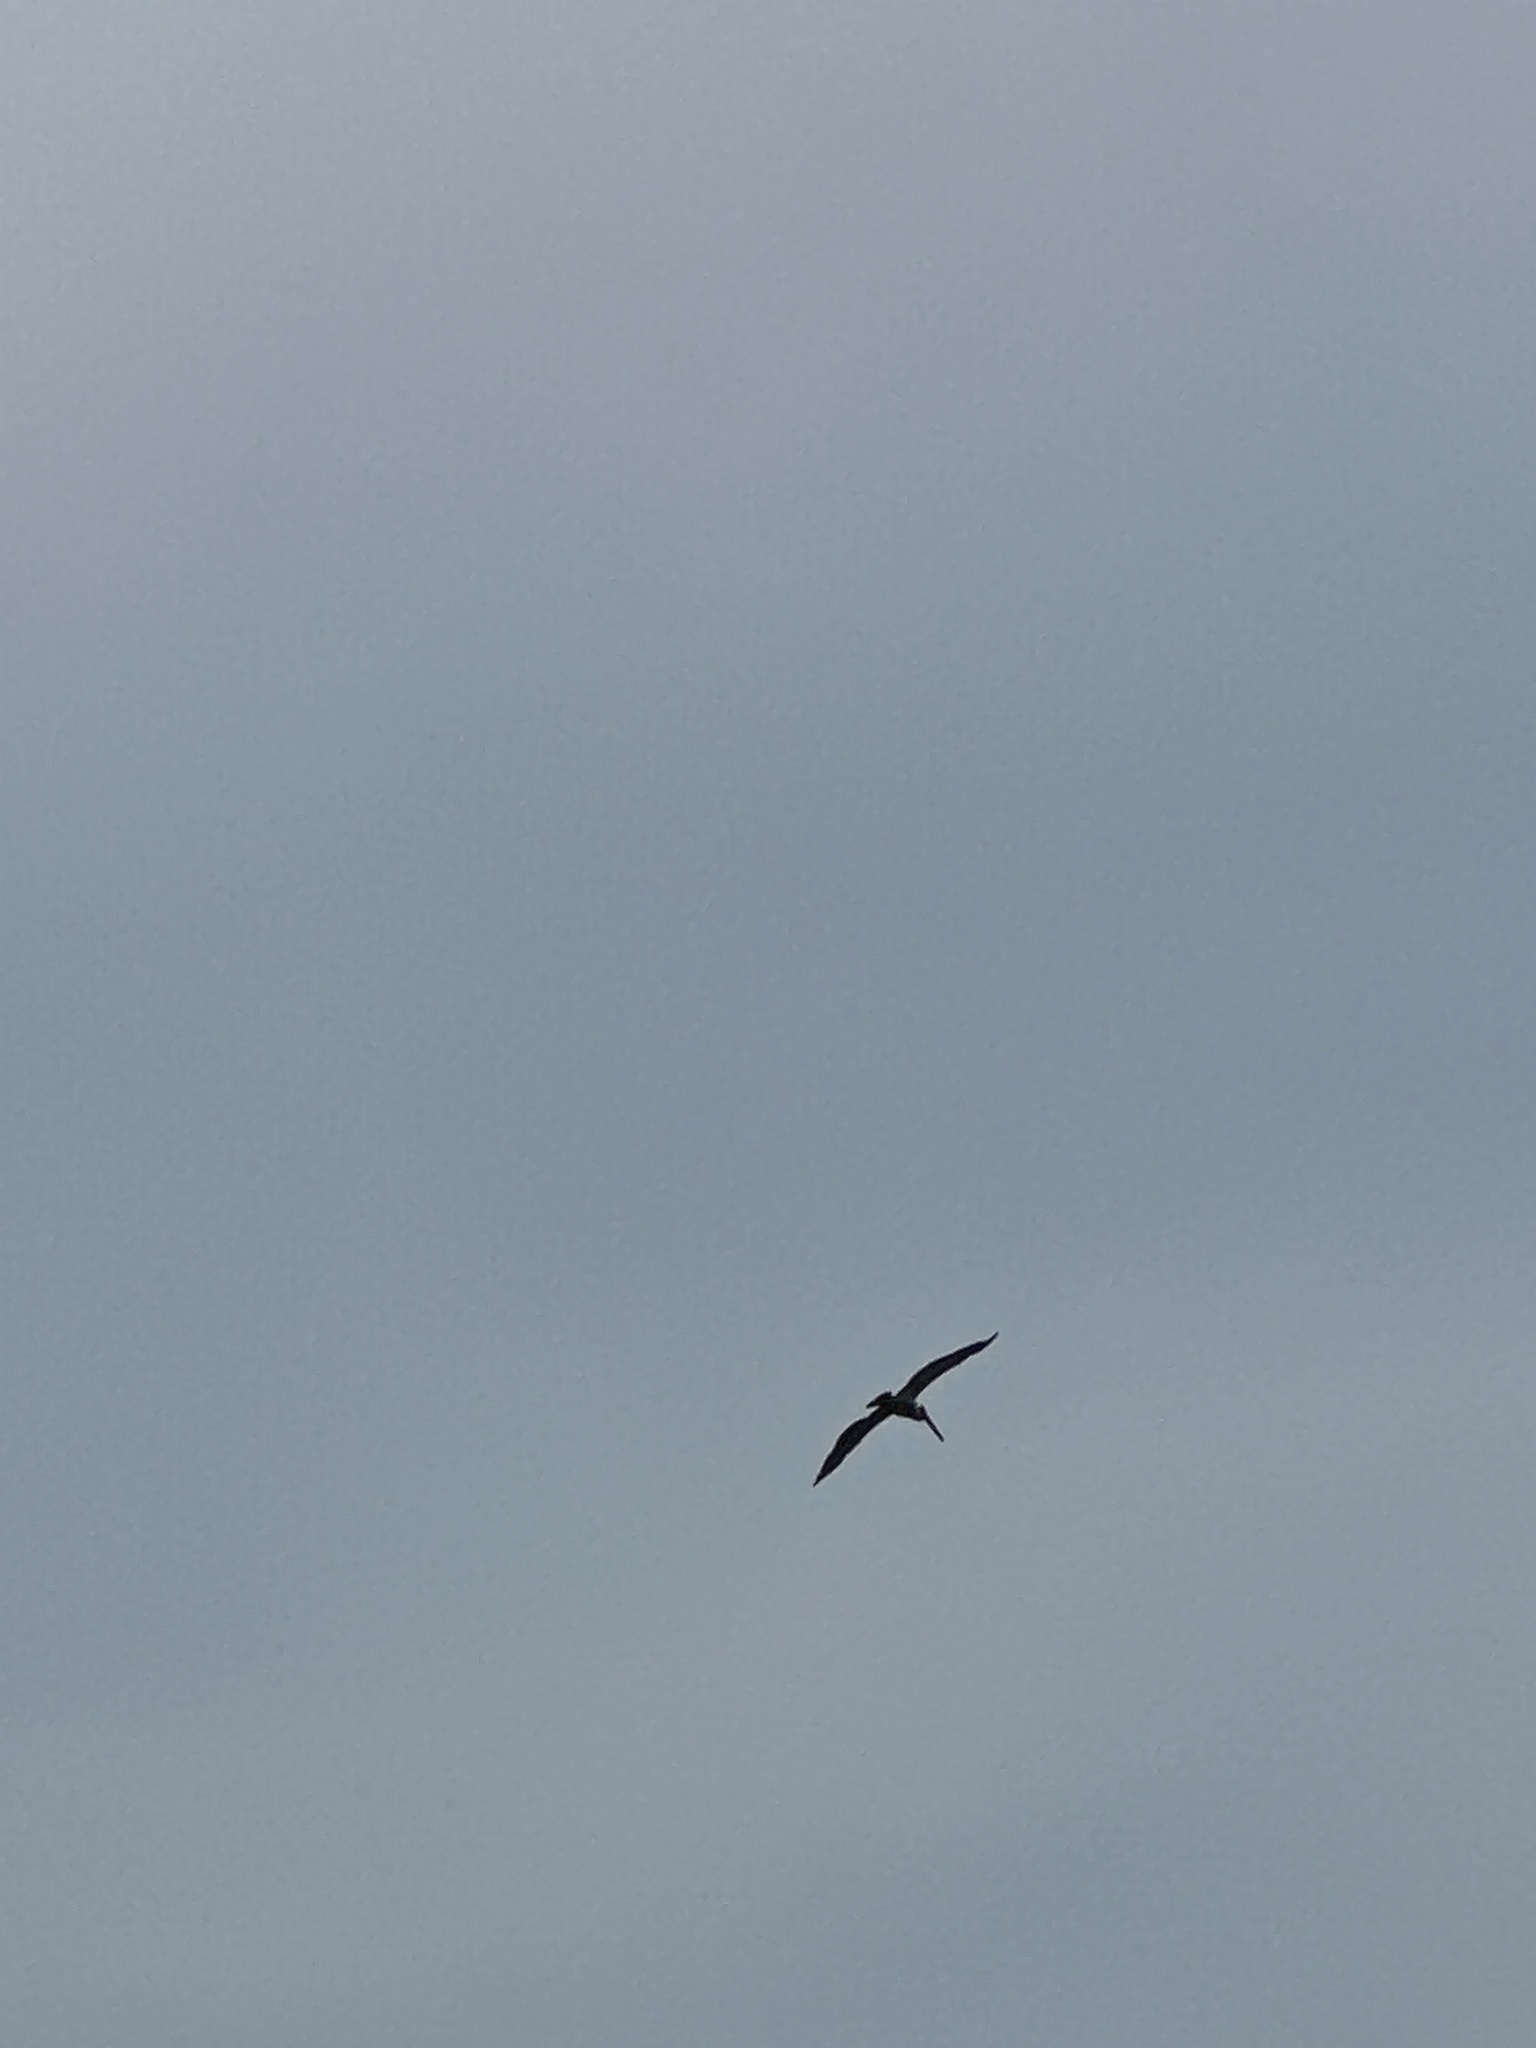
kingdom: Animalia
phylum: Chordata
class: Aves
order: Pelecaniformes
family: Pelecanidae
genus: Pelecanus
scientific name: Pelecanus occidentalis
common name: Brown pelican
